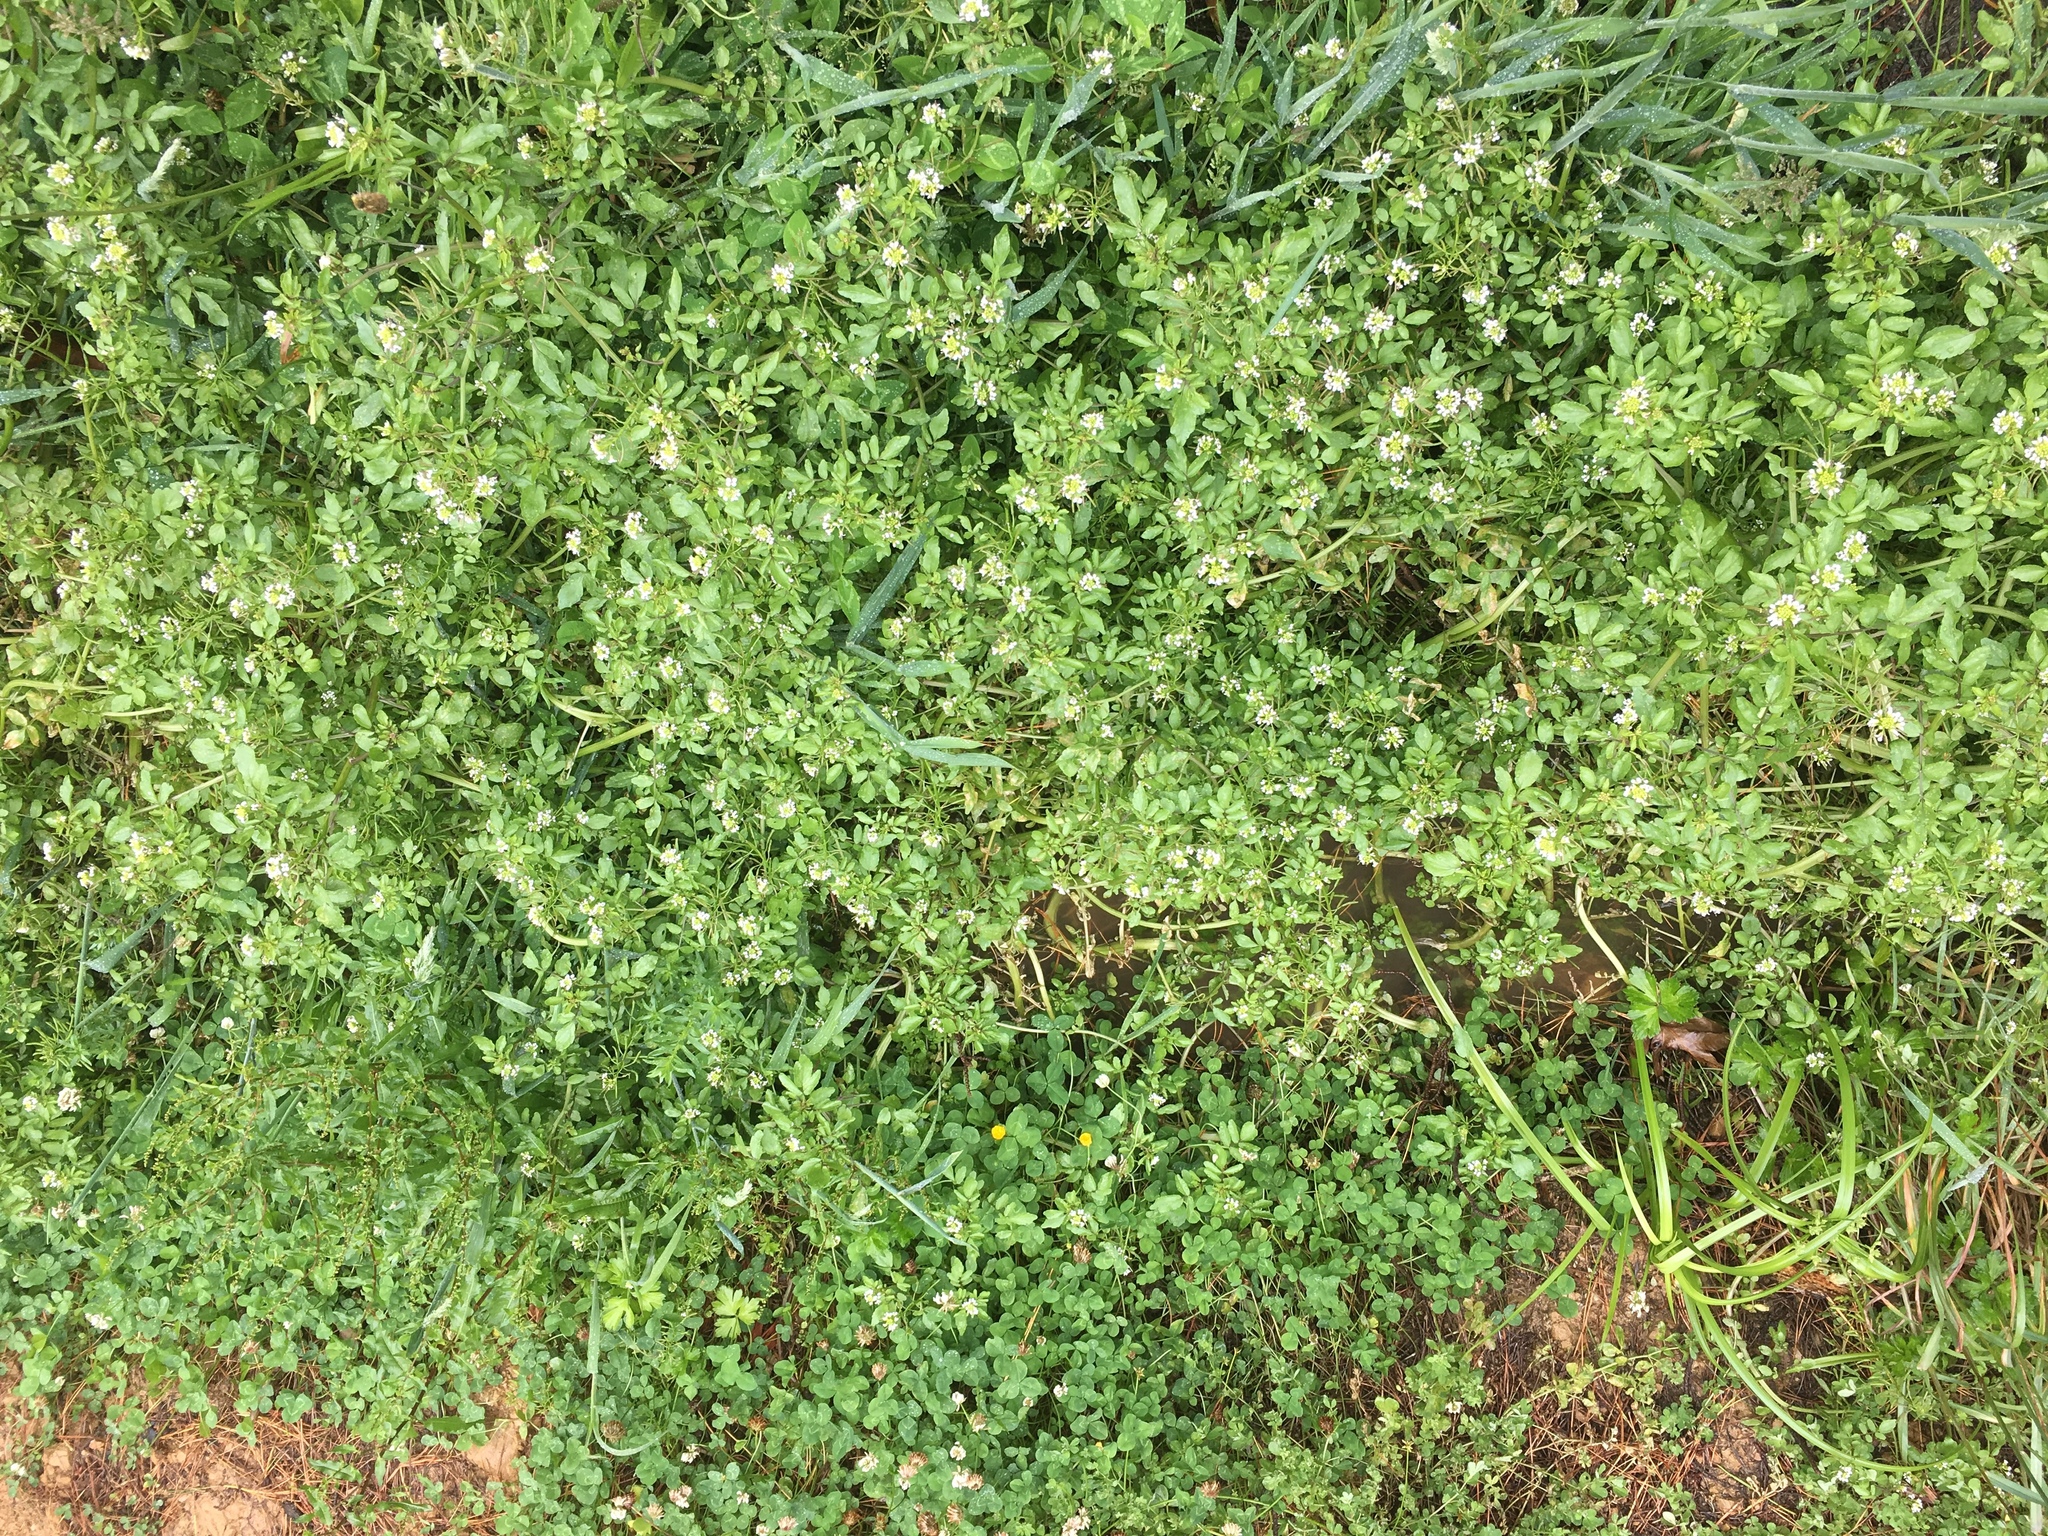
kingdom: Plantae
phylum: Tracheophyta
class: Magnoliopsida
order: Brassicales
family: Brassicaceae
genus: Nasturtium
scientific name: Nasturtium officinale
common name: Watercress
